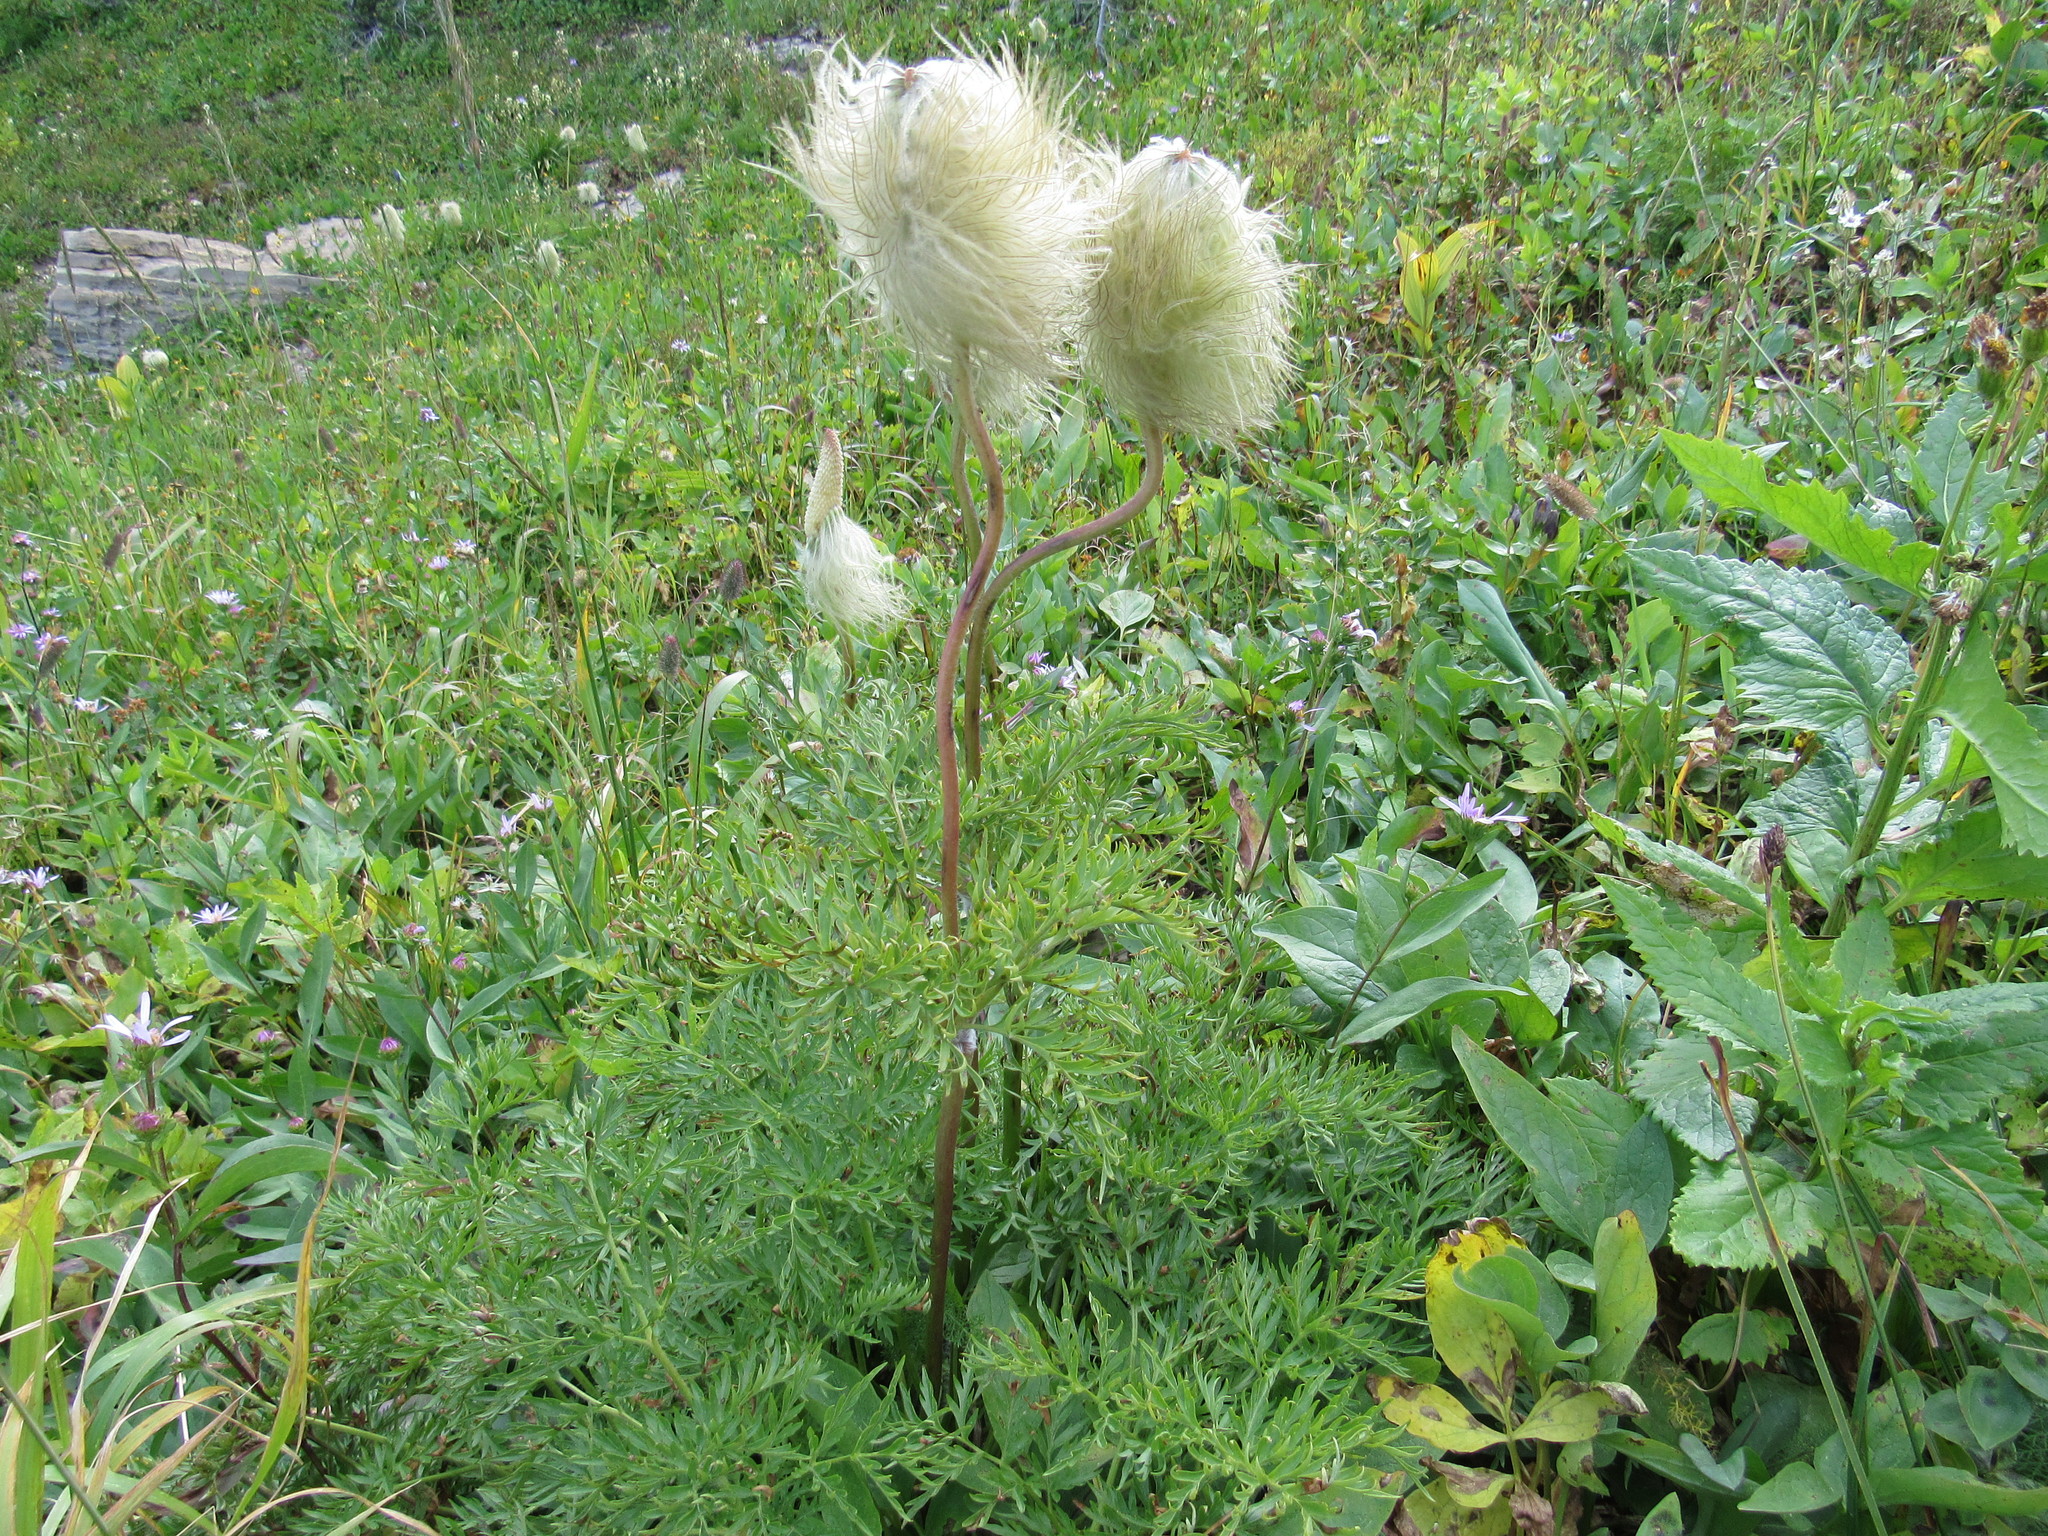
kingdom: Plantae
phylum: Tracheophyta
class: Magnoliopsida
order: Ranunculales
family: Ranunculaceae
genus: Pulsatilla
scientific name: Pulsatilla occidentalis
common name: Mountain pasqueflower
